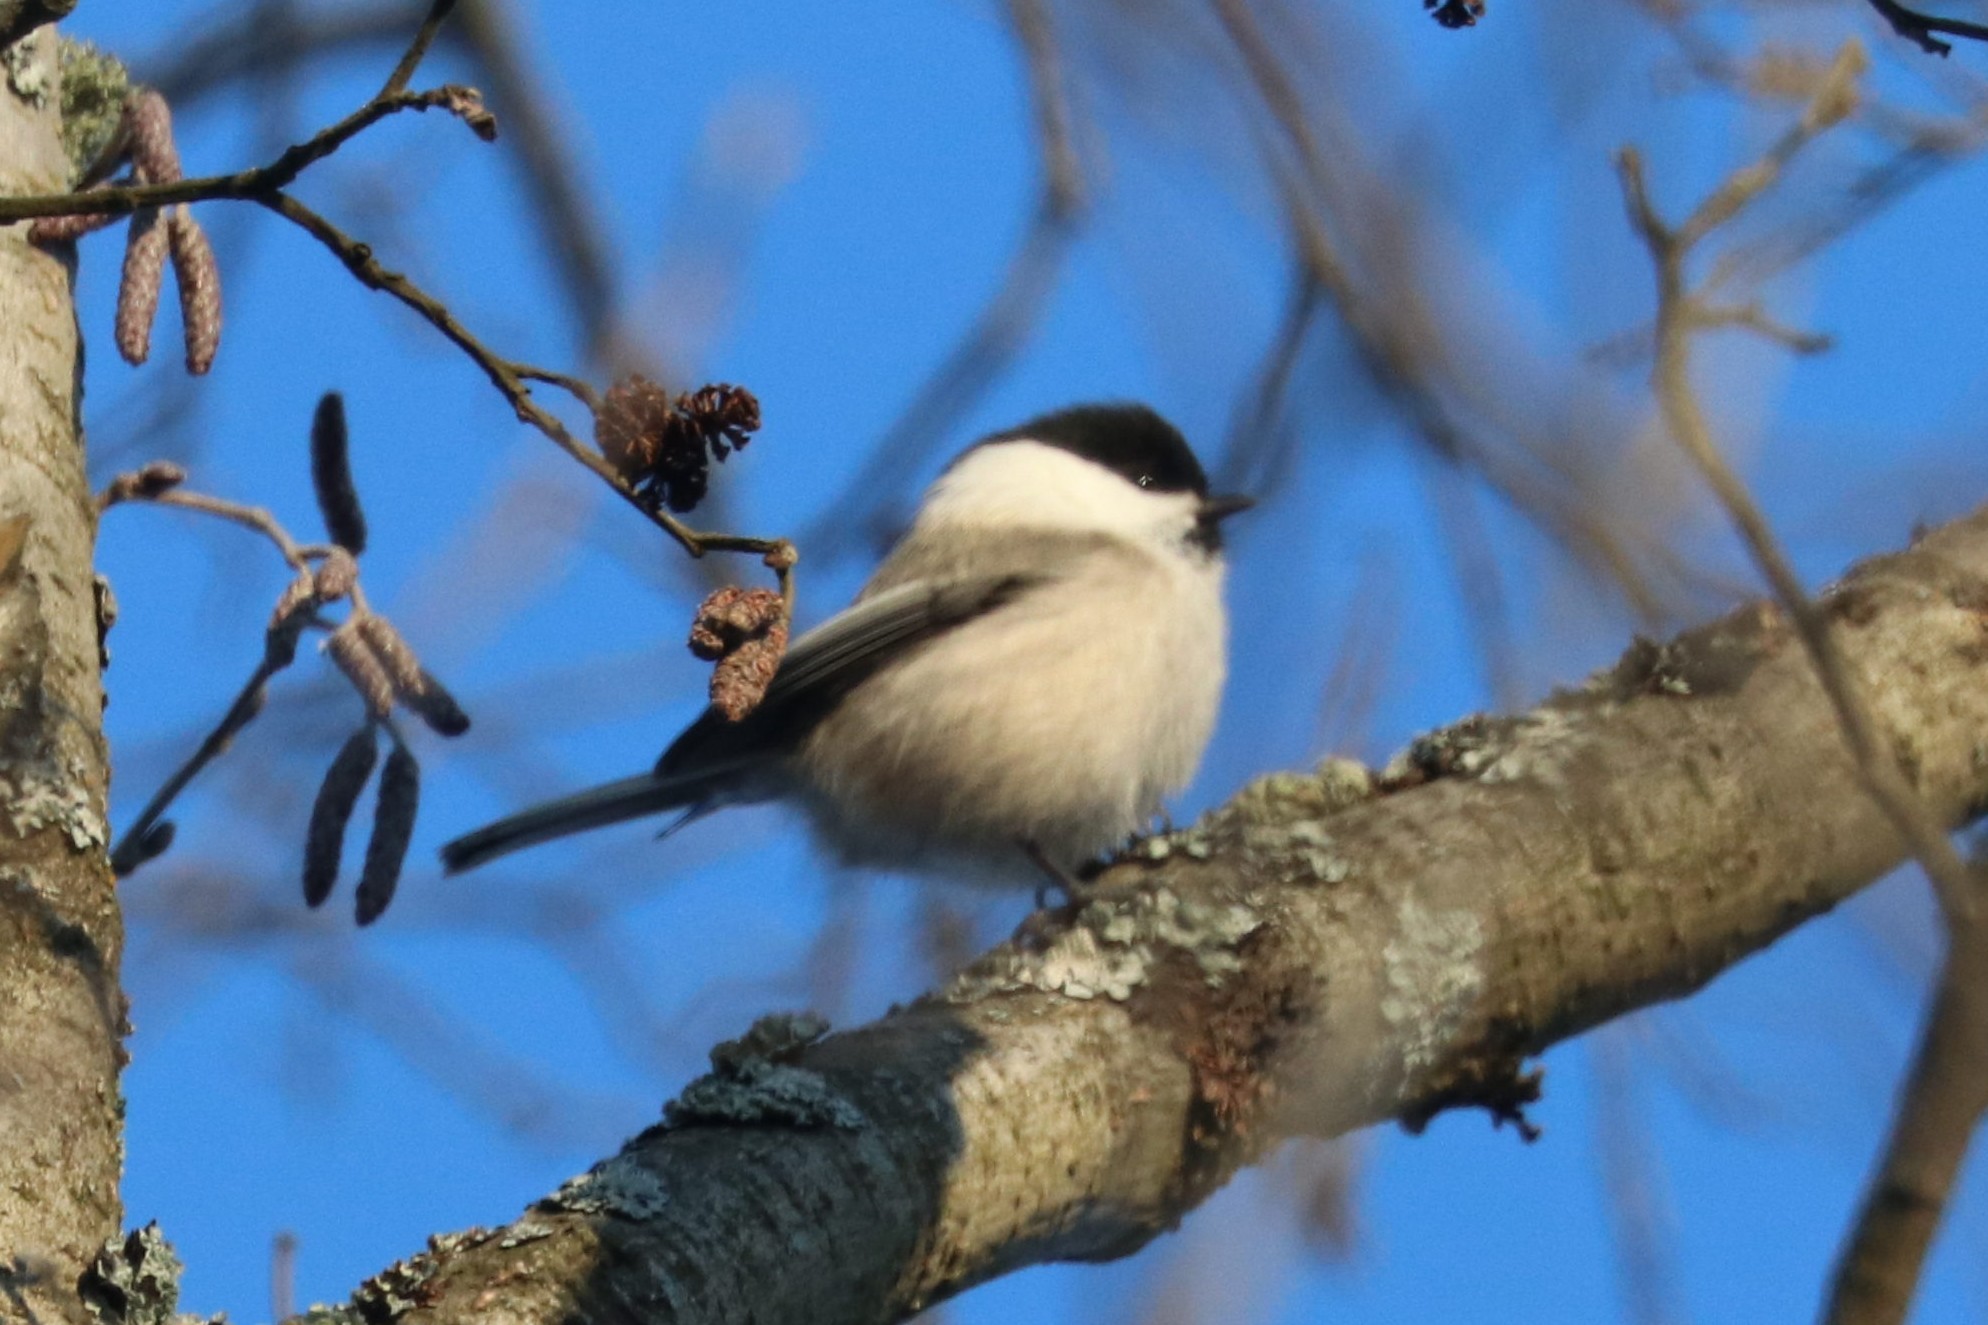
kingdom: Animalia
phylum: Chordata
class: Aves
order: Passeriformes
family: Paridae
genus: Poecile
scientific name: Poecile montanus
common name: Willow tit
